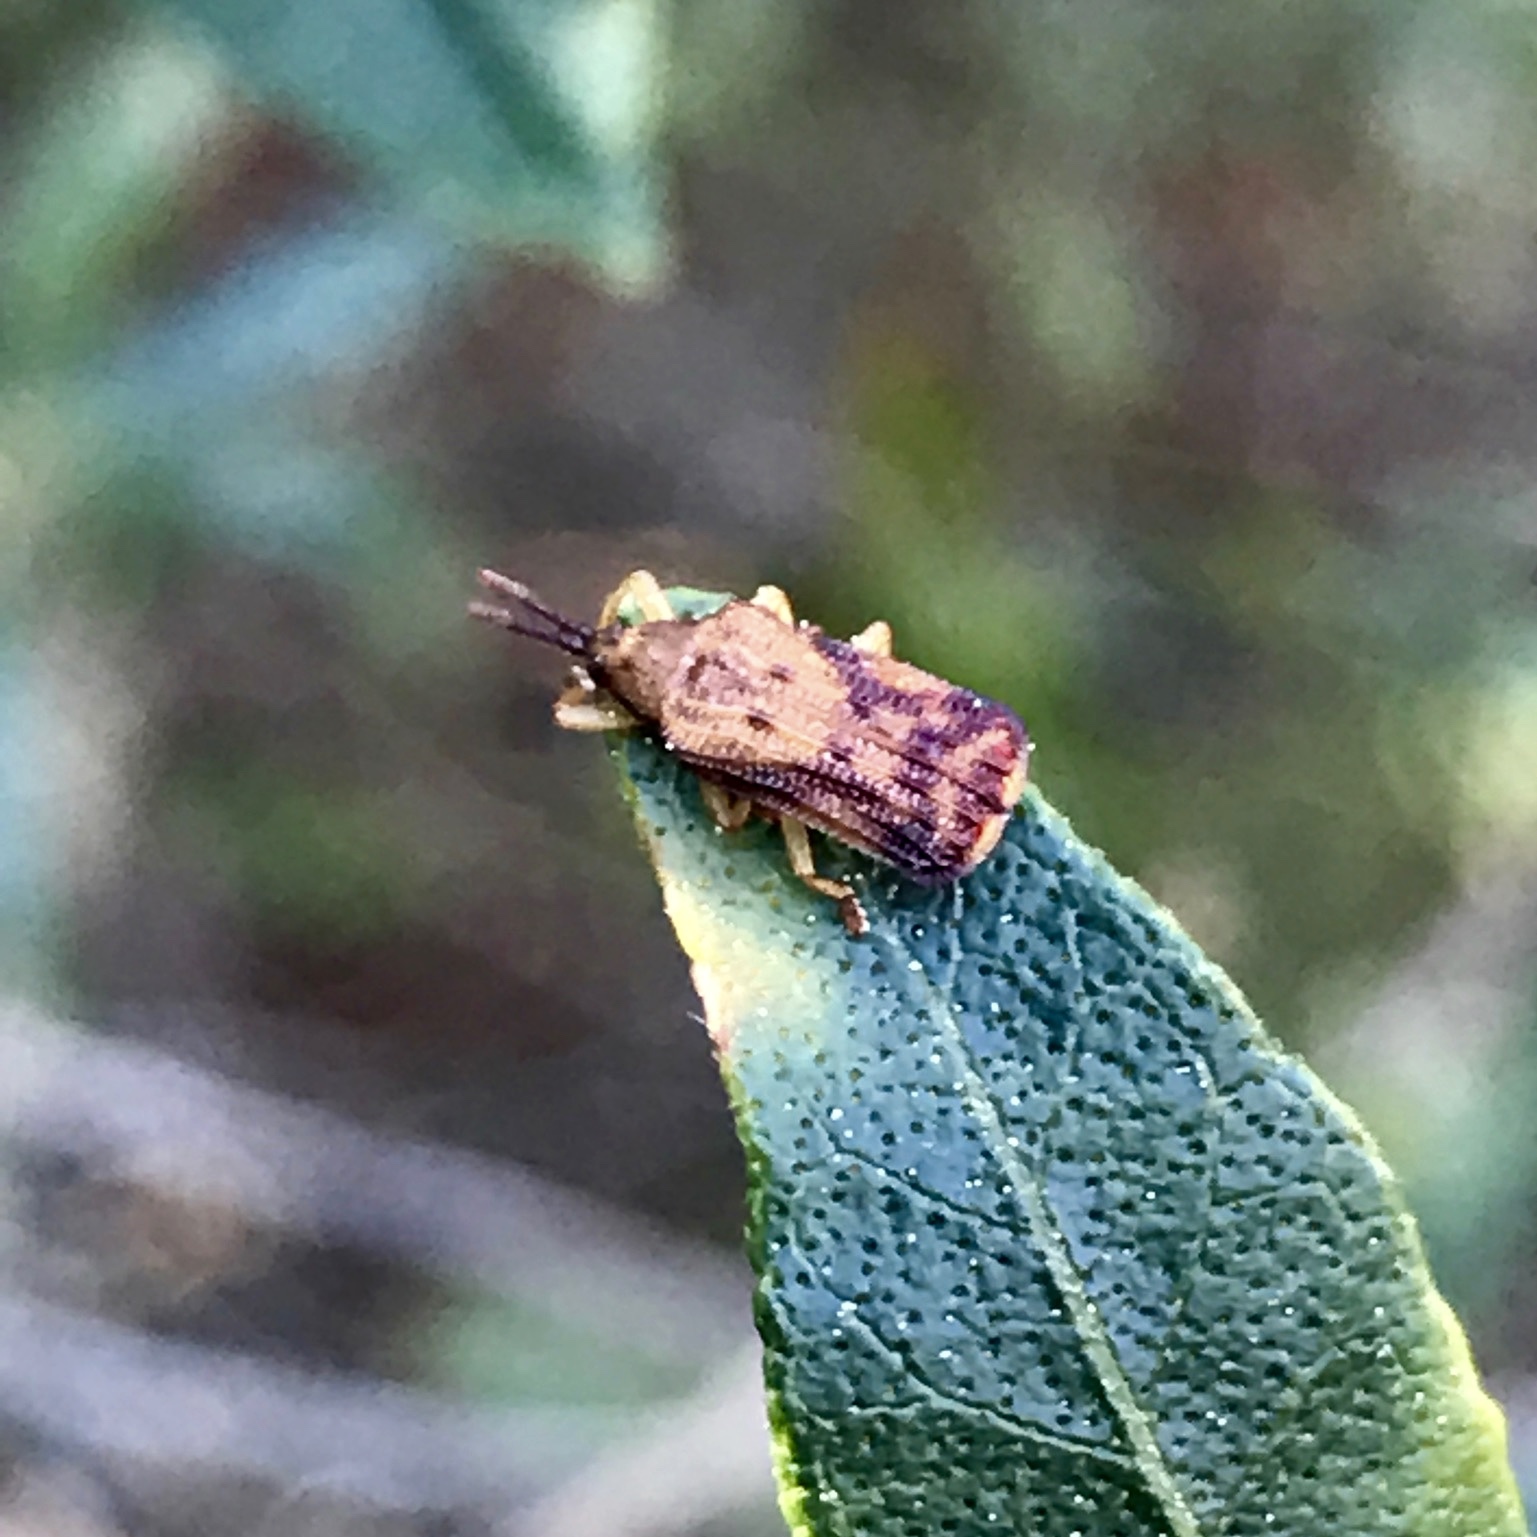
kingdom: Animalia
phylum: Arthropoda
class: Insecta
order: Coleoptera
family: Chrysomelidae
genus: Baliosus
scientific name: Baliosus nervosus
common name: Basswood leaf miner
